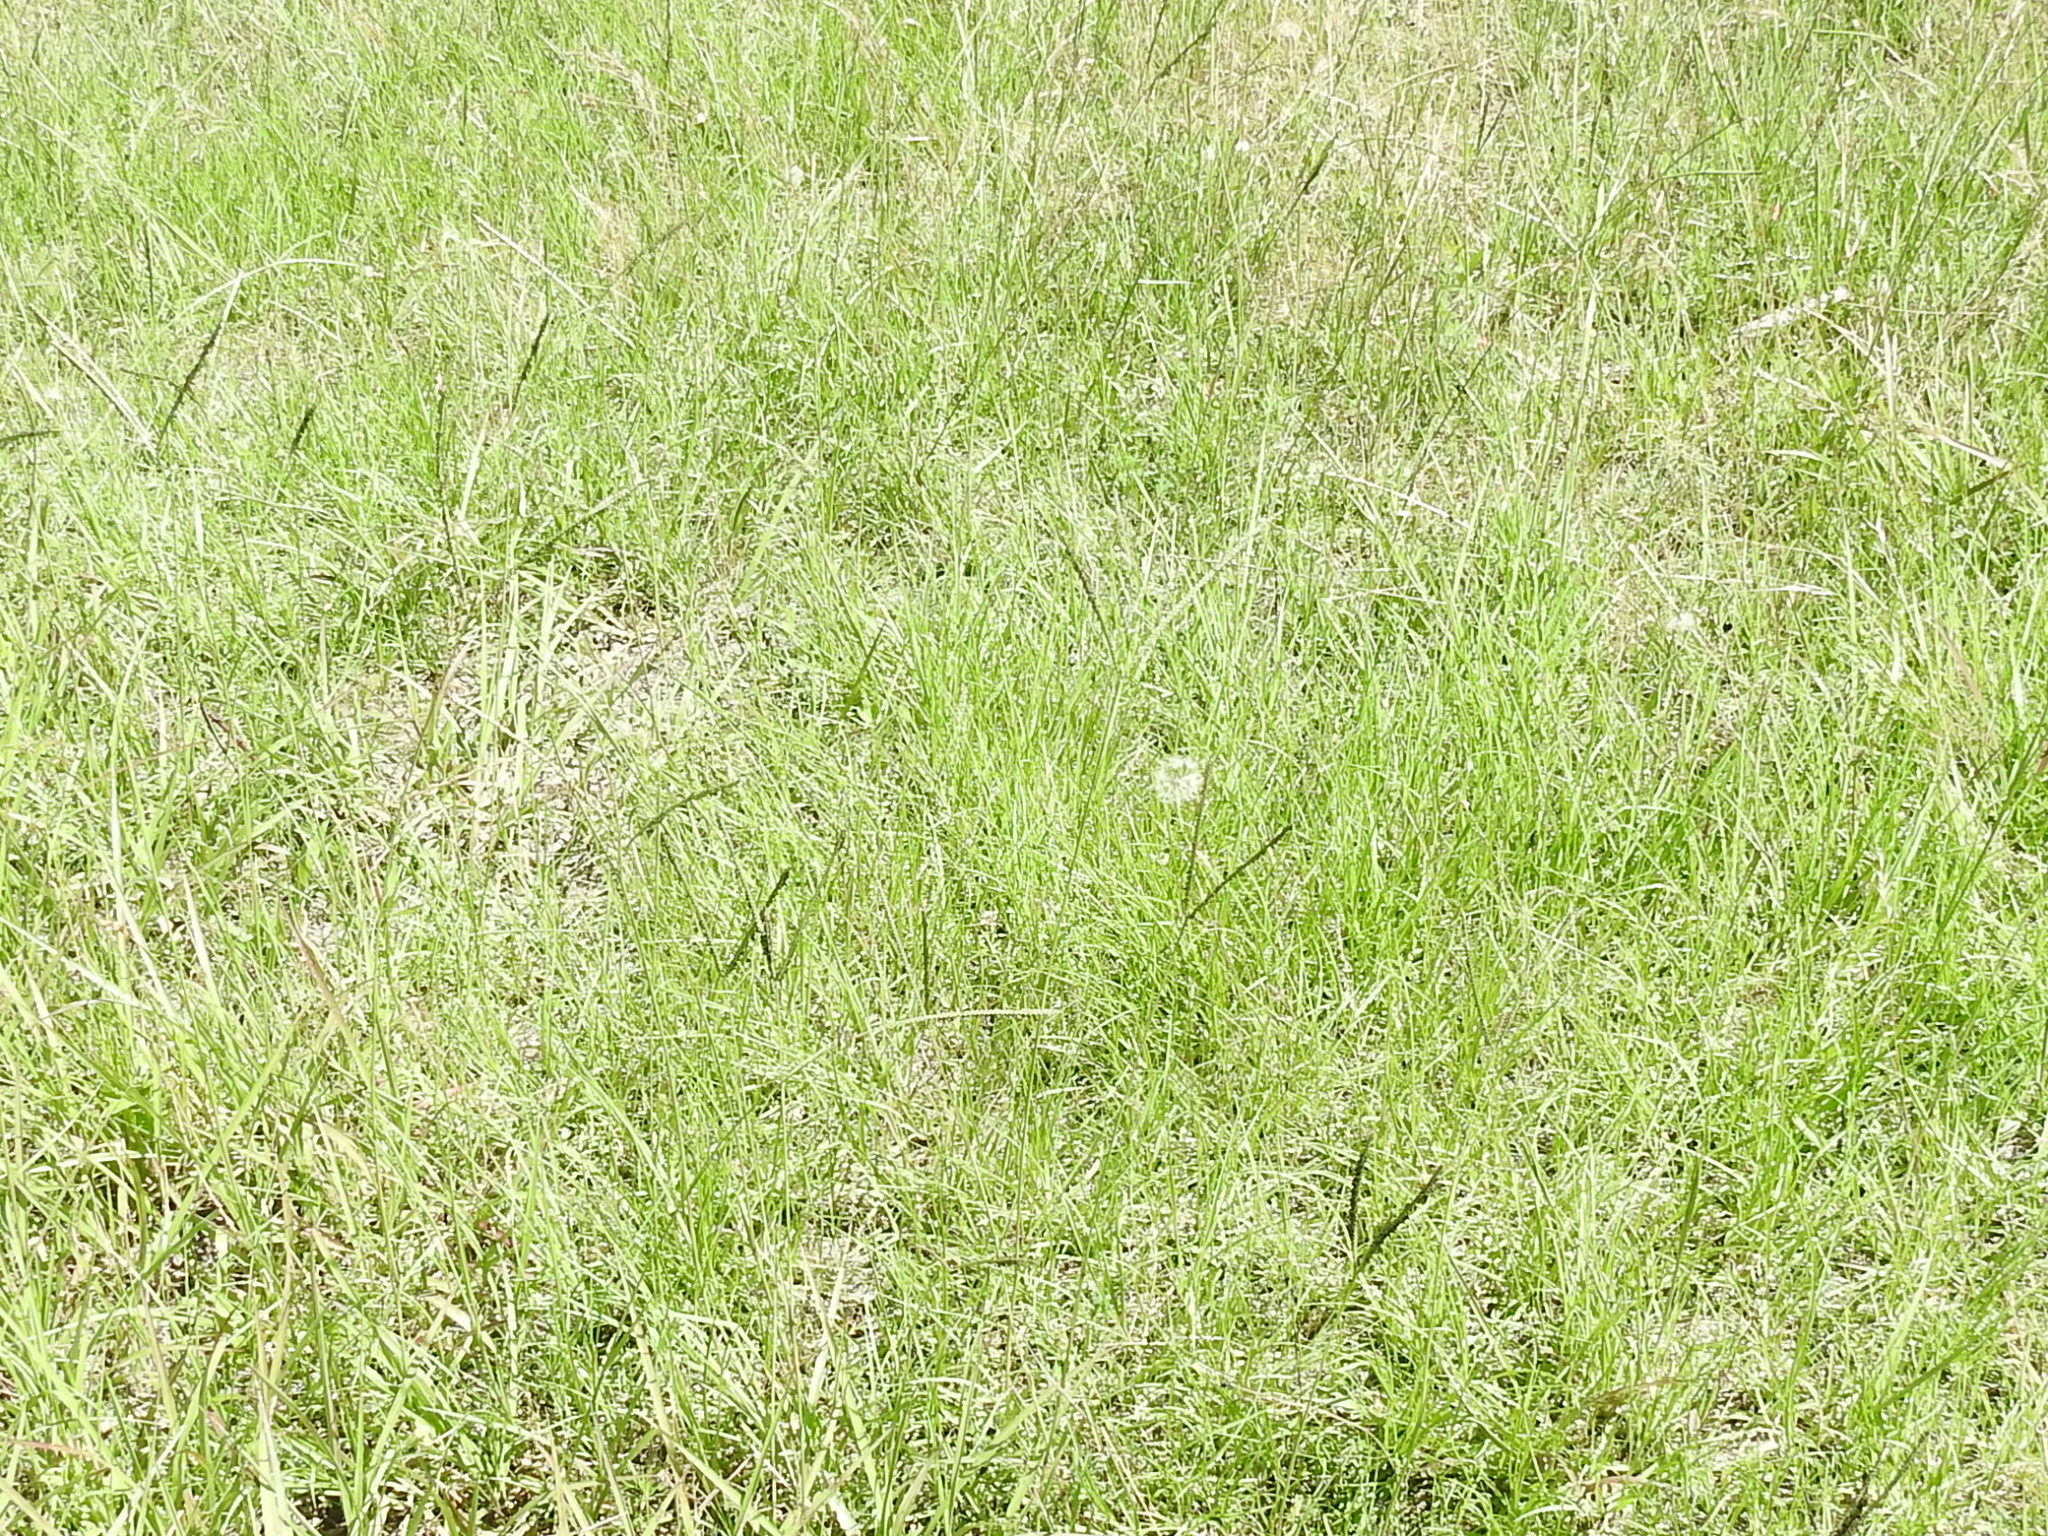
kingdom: Plantae
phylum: Tracheophyta
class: Liliopsida
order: Poales
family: Poaceae
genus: Paspalum
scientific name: Paspalum notatum
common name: Bahiagrass
